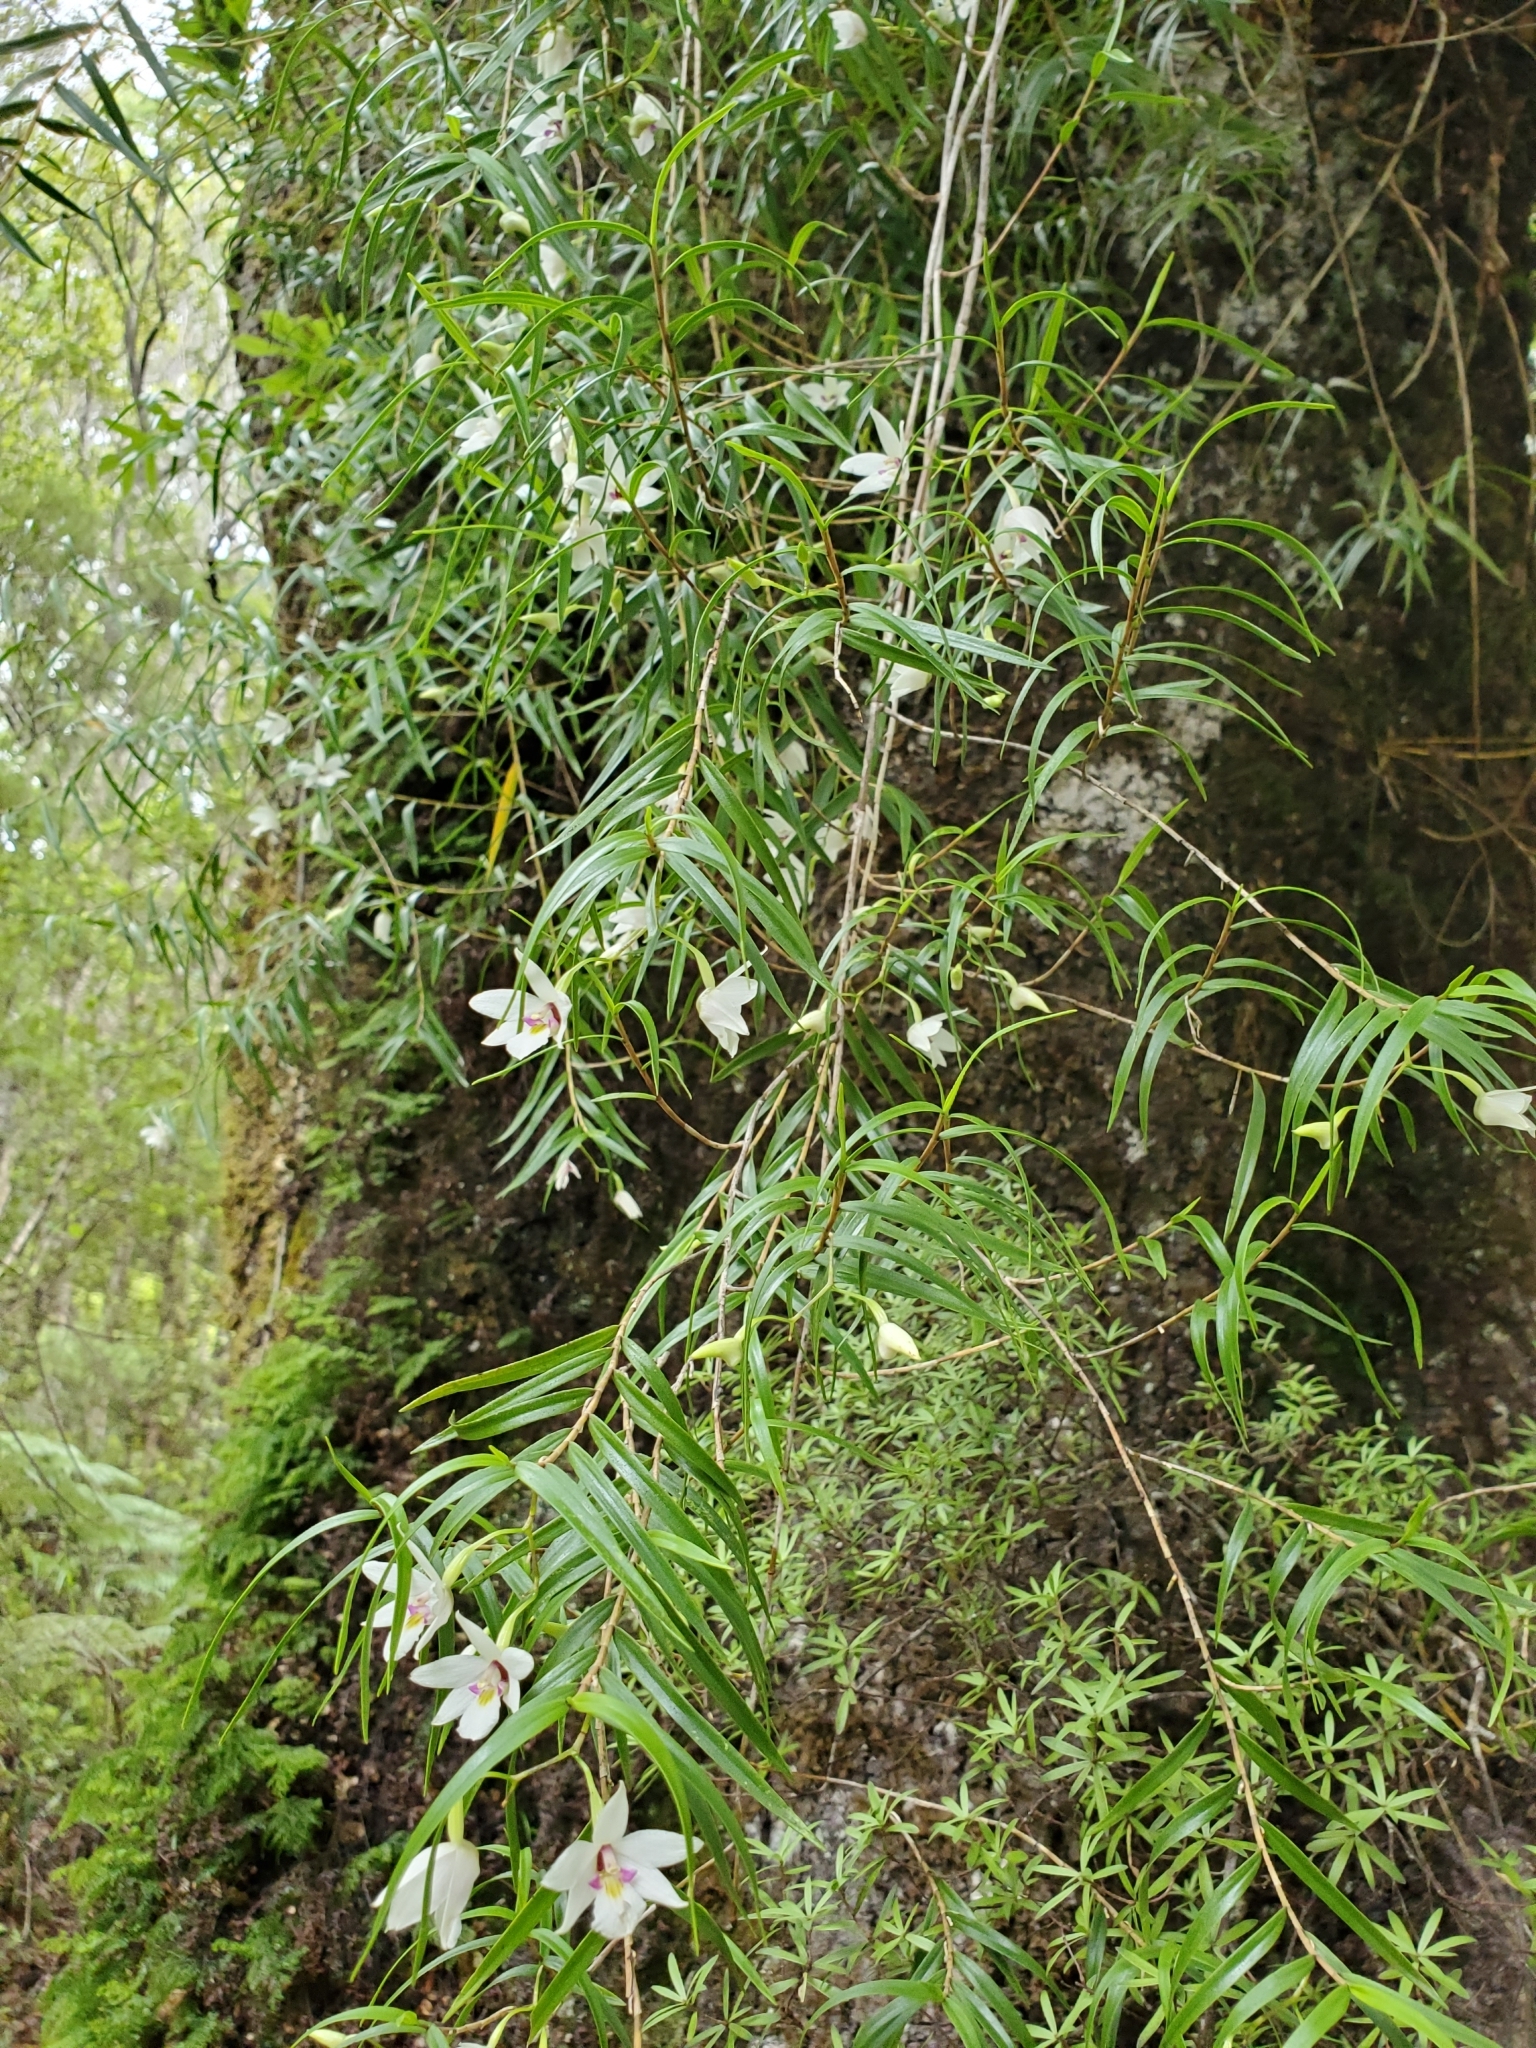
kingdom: Plantae
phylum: Tracheophyta
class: Liliopsida
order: Asparagales
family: Orchidaceae
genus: Dendrobium
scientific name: Dendrobium cunninghamii
